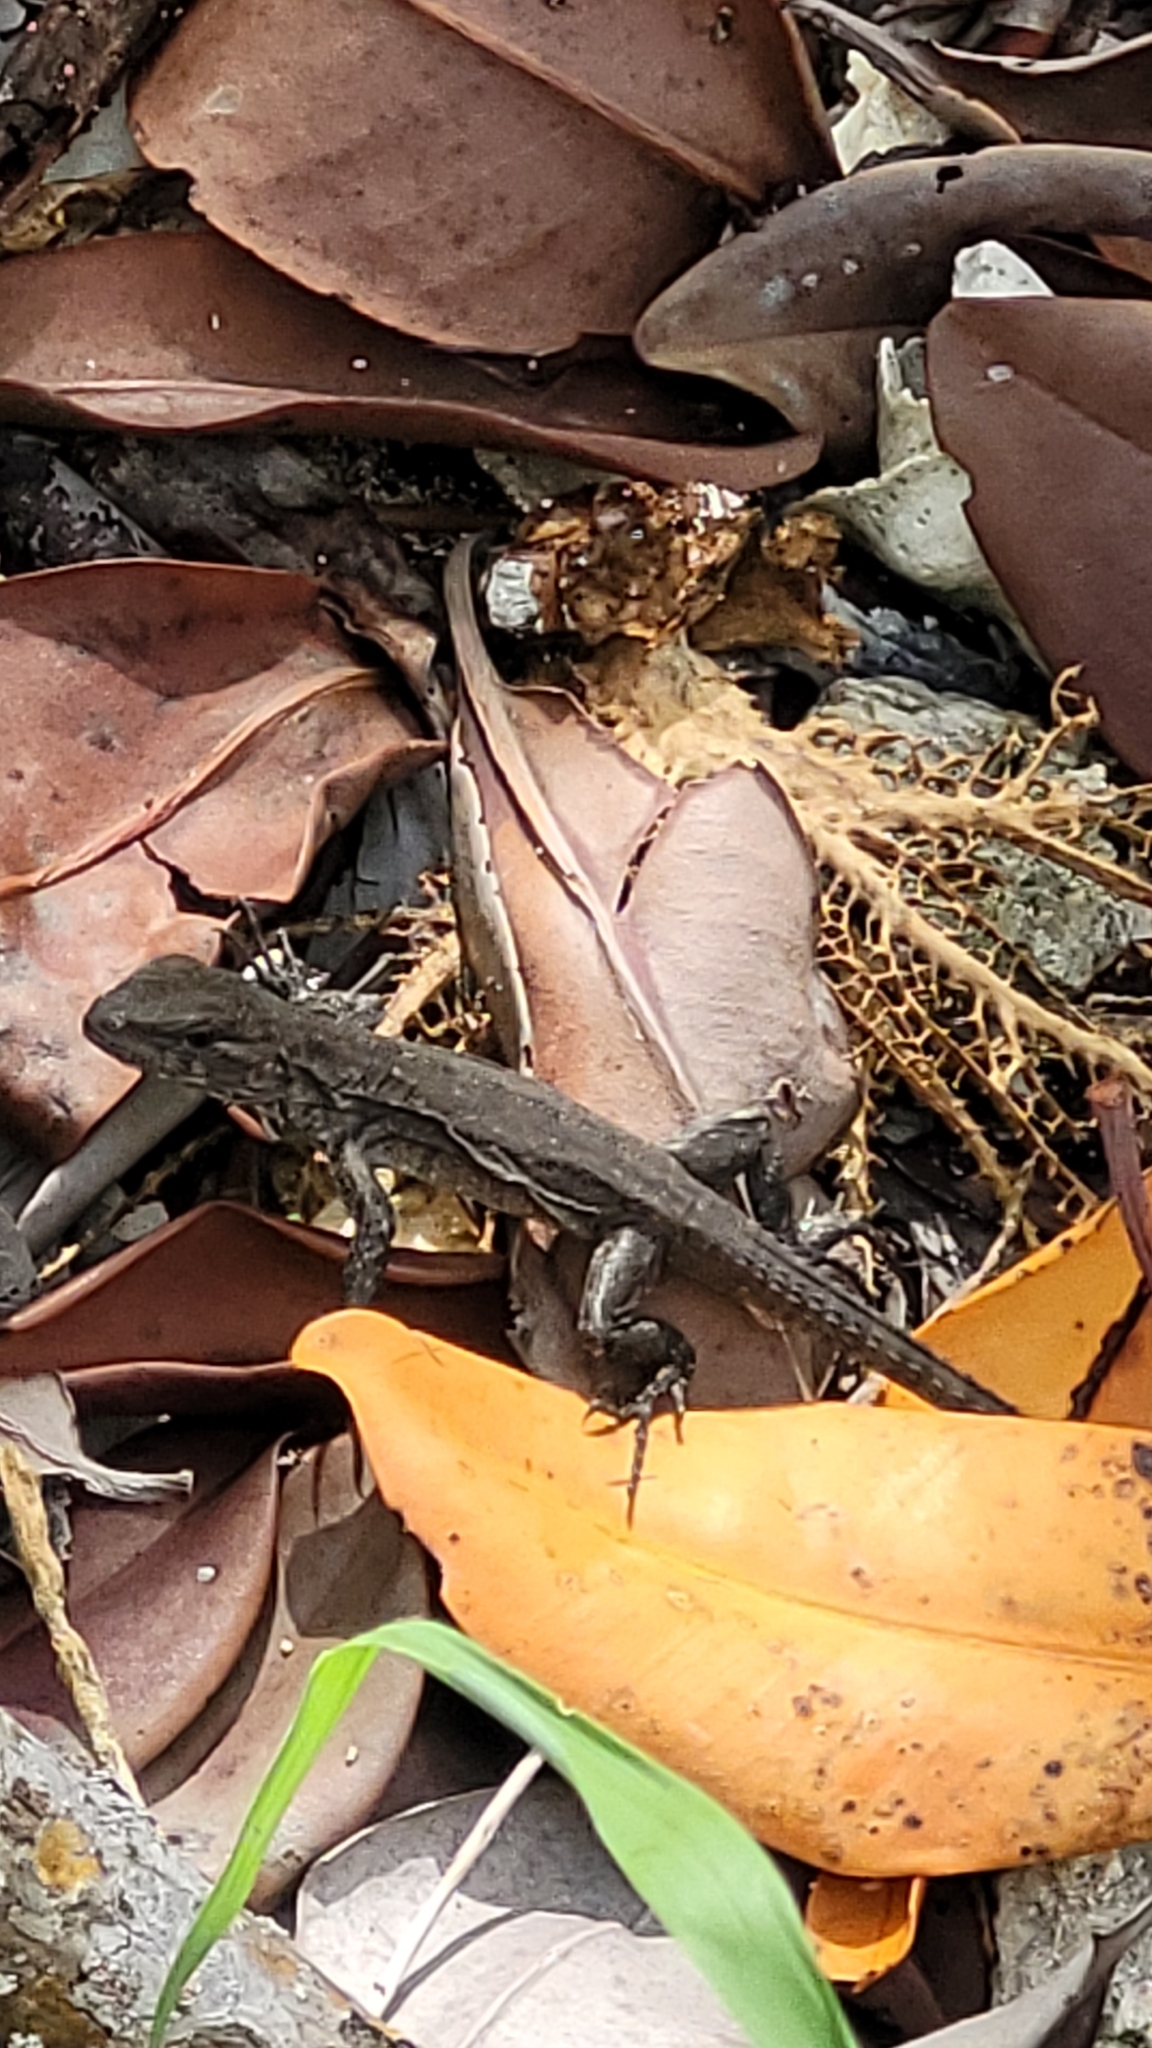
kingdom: Animalia
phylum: Chordata
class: Squamata
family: Iguanidae
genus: Ctenosaura
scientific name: Ctenosaura bakeri
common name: Utila spiny-tailed iguana
